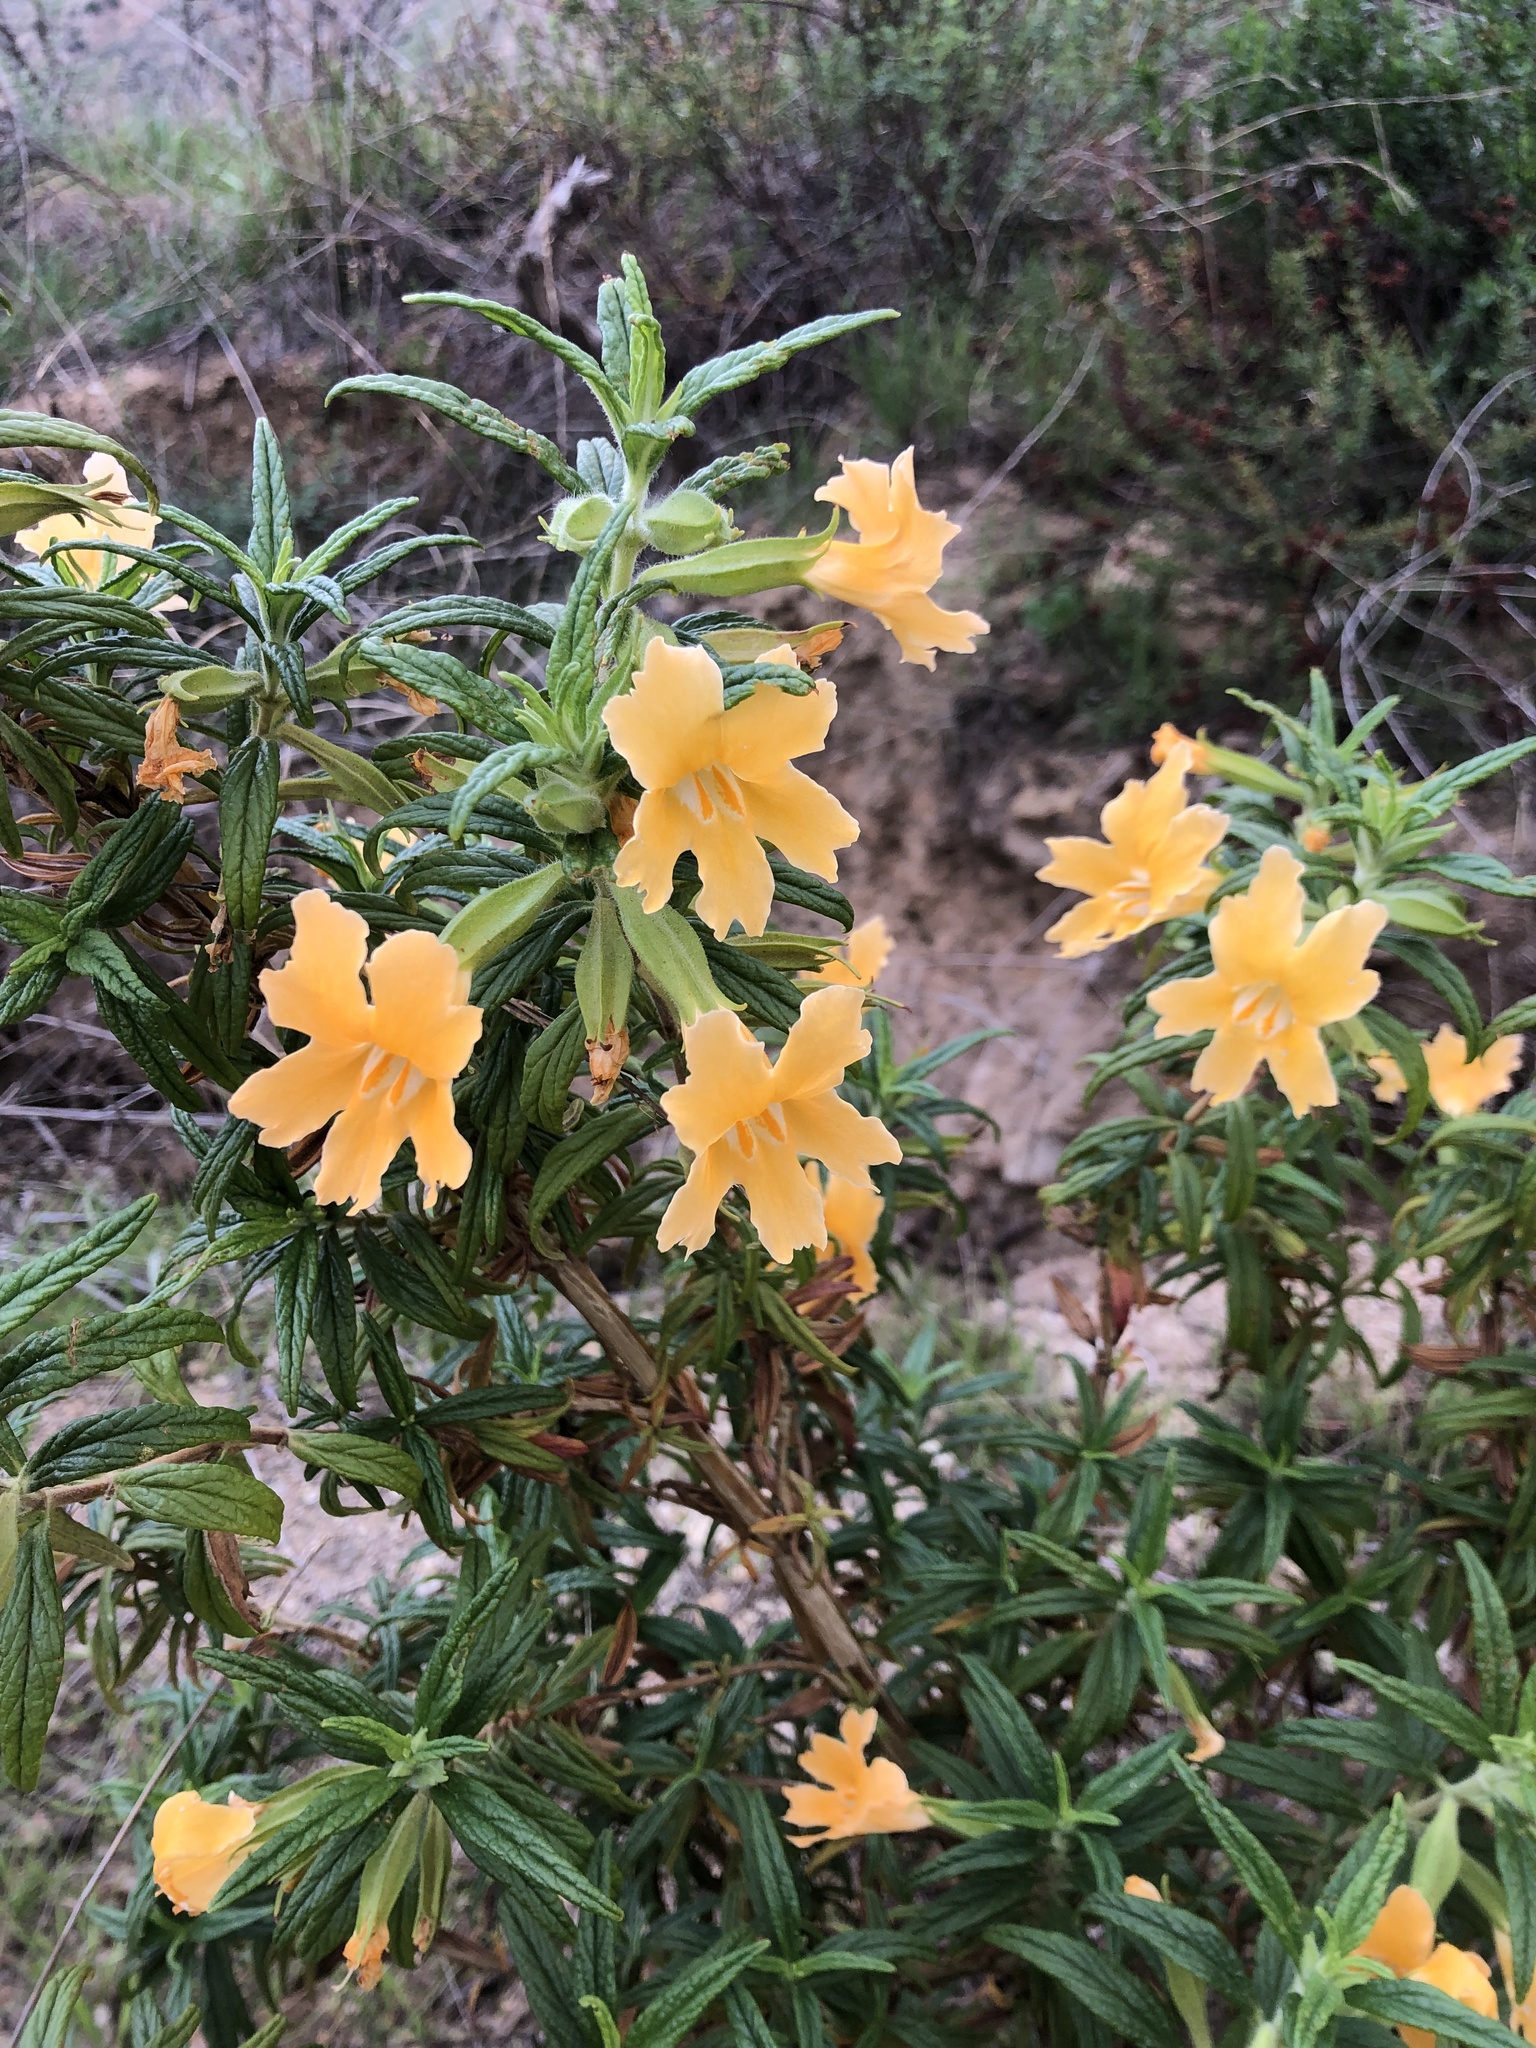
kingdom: Plantae
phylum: Tracheophyta
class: Magnoliopsida
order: Lamiales
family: Phrymaceae
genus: Diplacus
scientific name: Diplacus longiflorus
